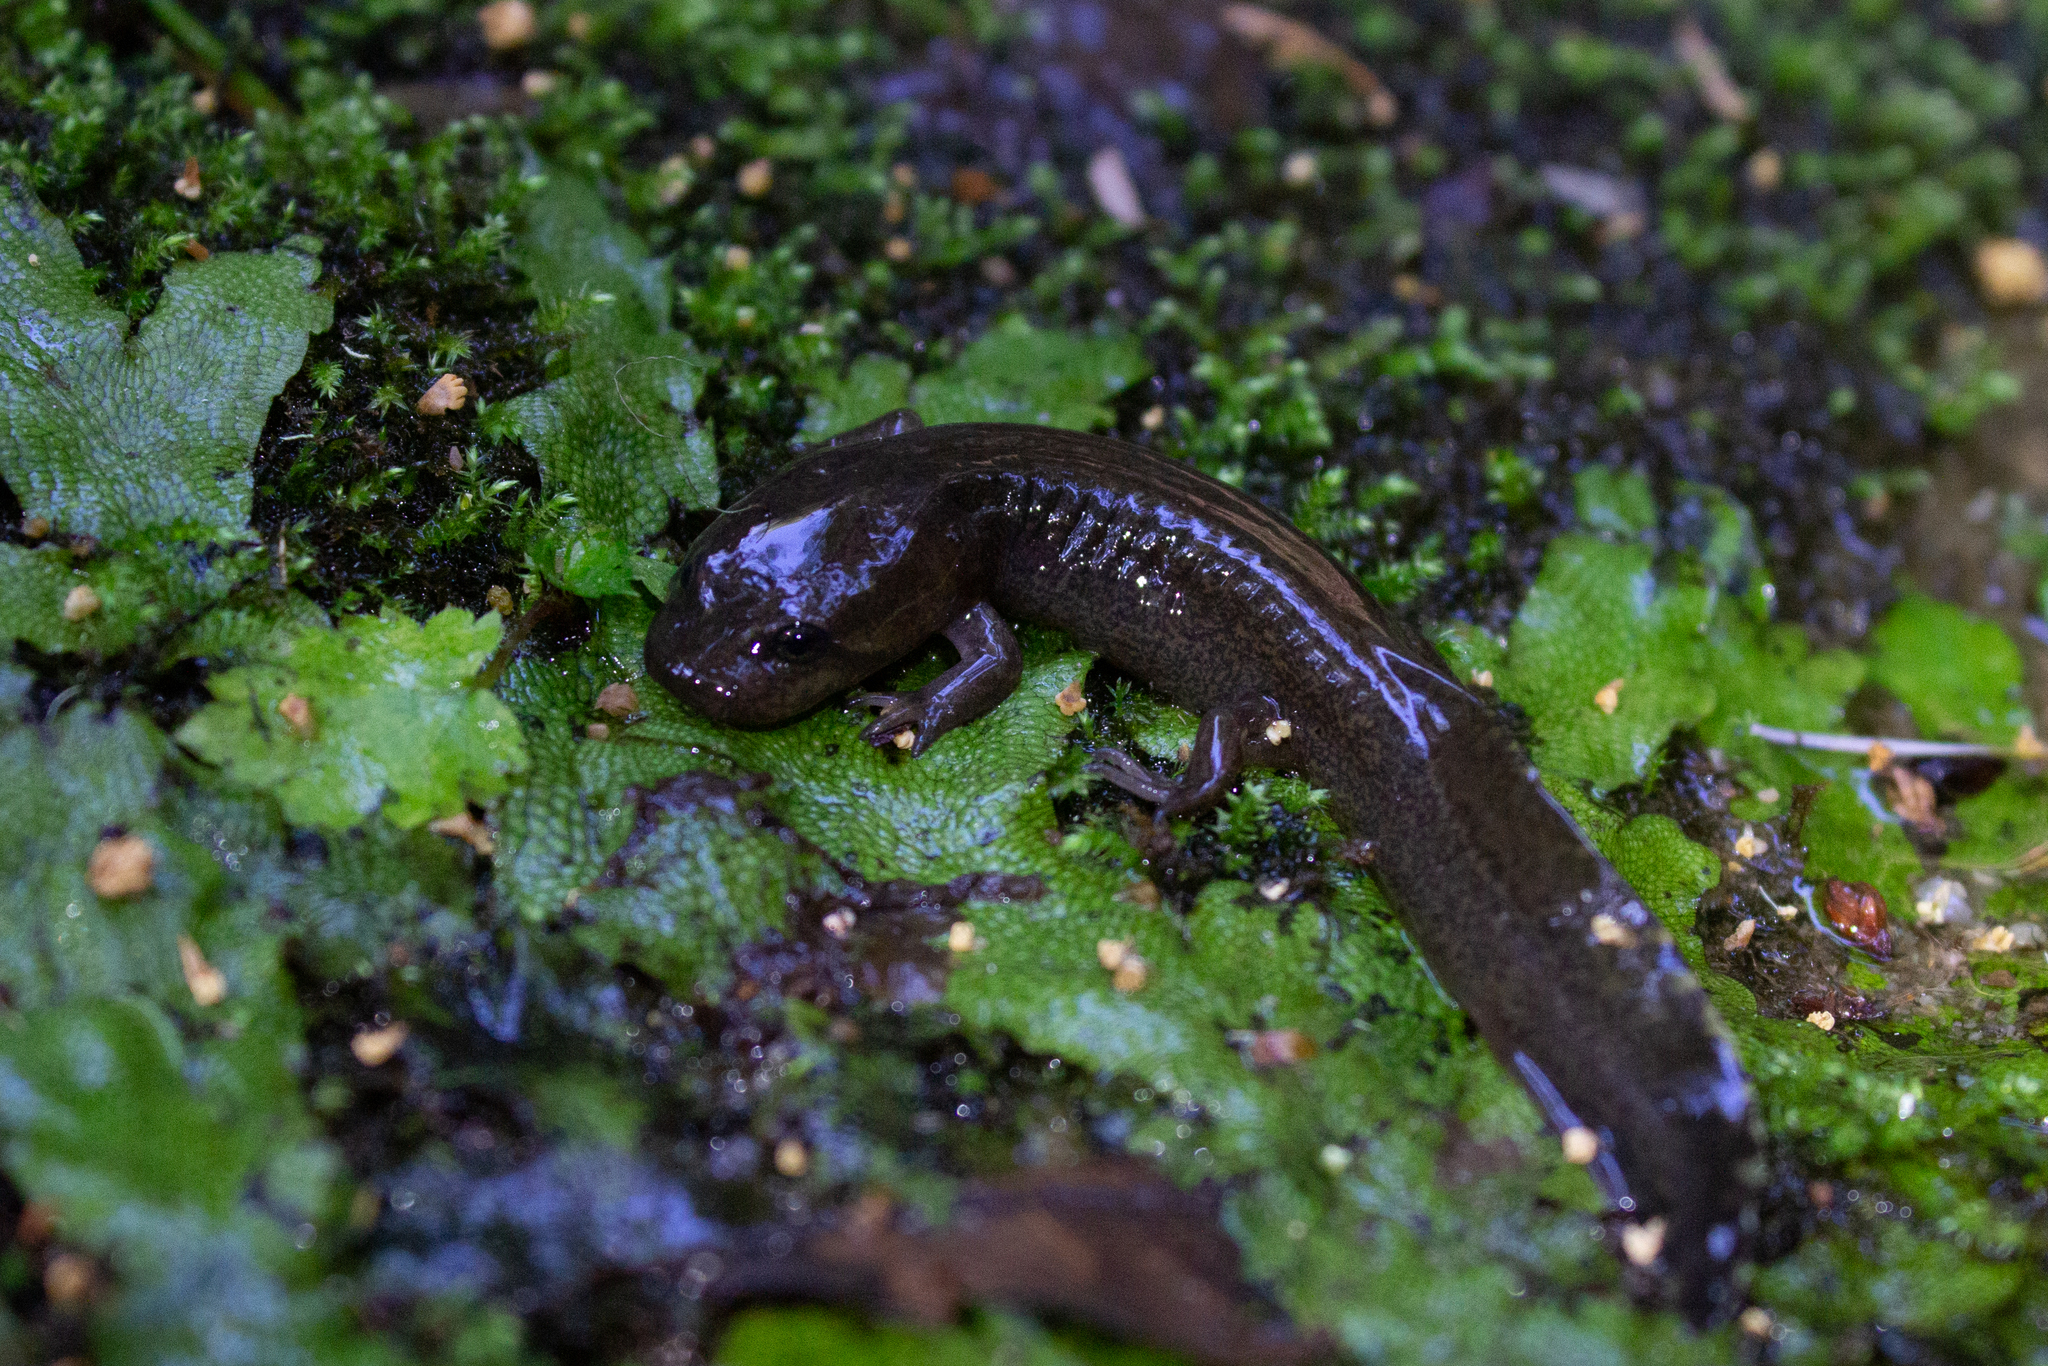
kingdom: Animalia
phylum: Chordata
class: Amphibia
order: Caudata
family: Ambystomatidae
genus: Dicamptodon
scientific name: Dicamptodon ensatus
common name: California giant salamander
